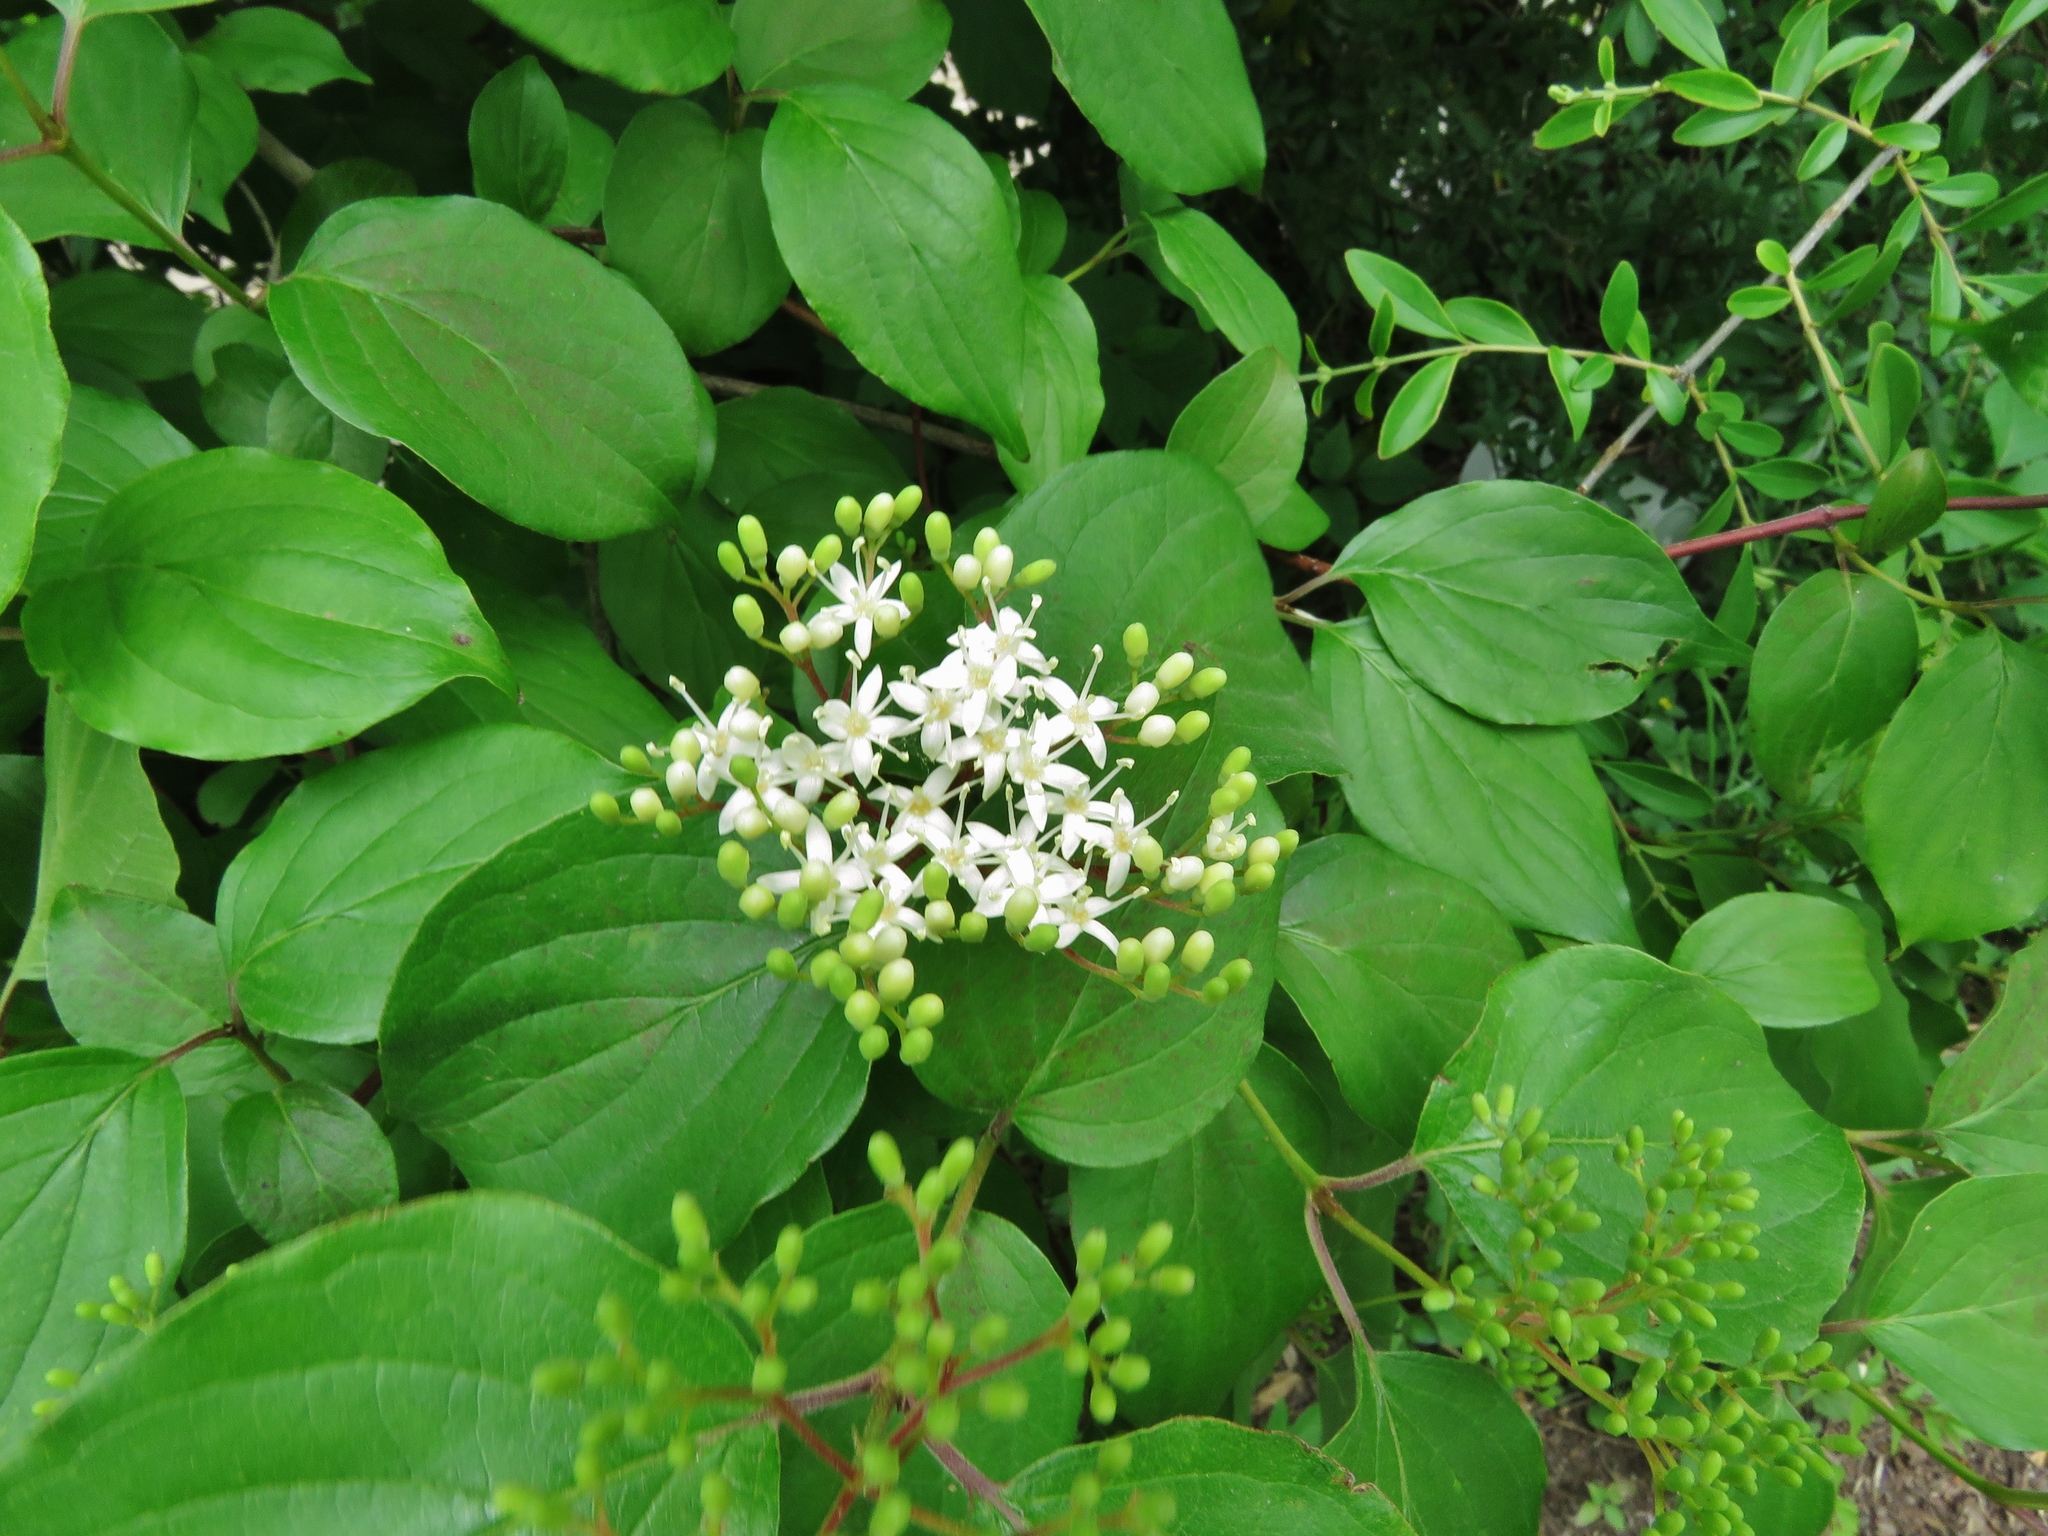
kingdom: Plantae
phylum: Tracheophyta
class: Magnoliopsida
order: Cornales
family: Cornaceae
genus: Cornus
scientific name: Cornus drummondii
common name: Rough-leaf dogwood
